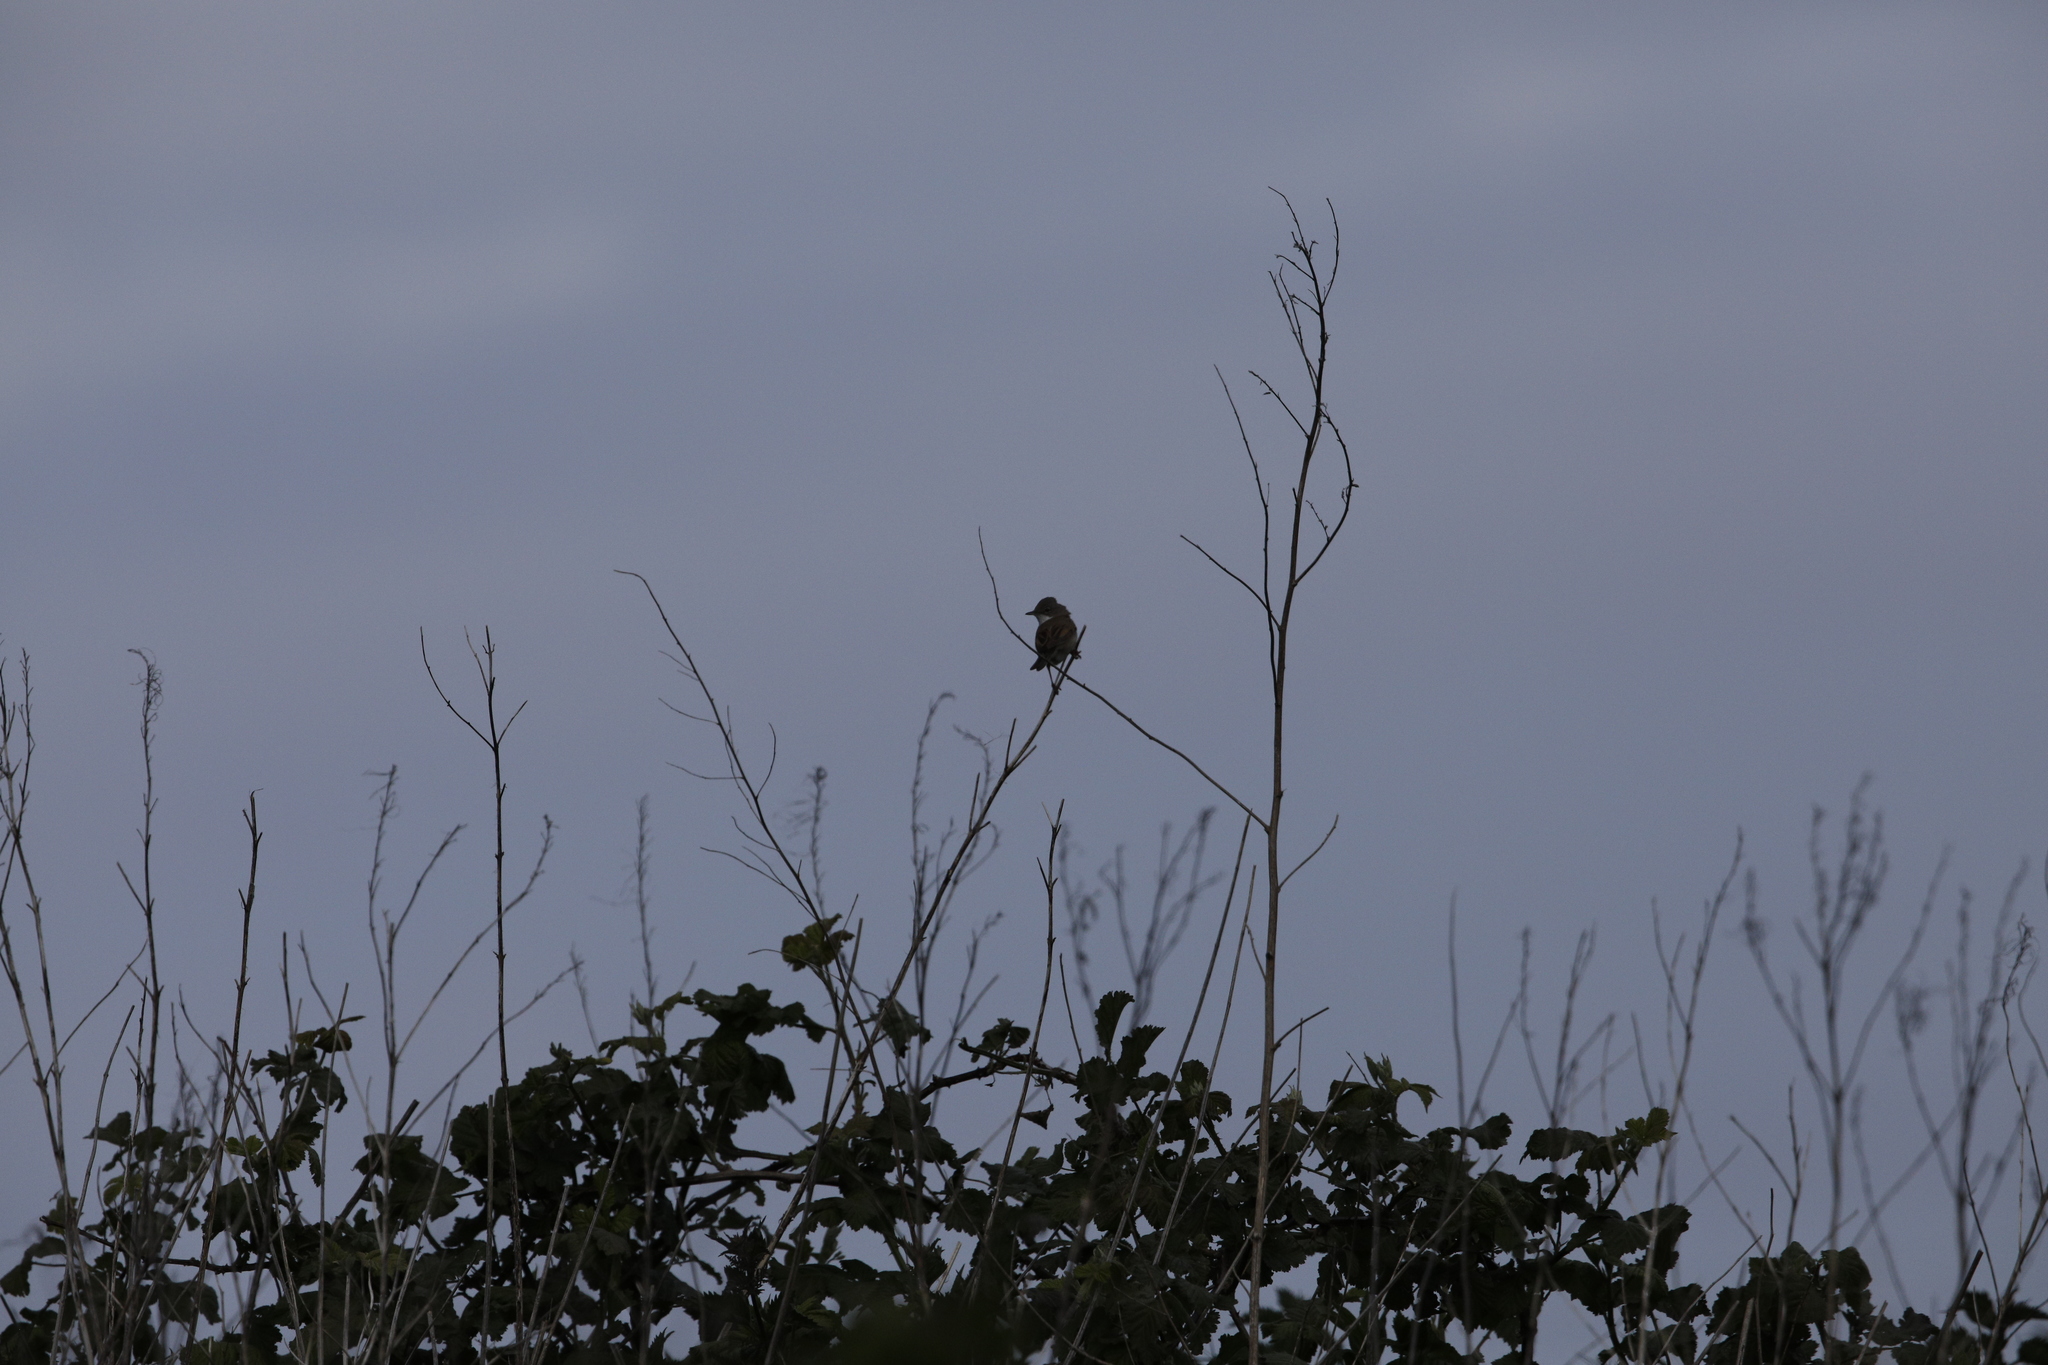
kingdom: Animalia
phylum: Chordata
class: Aves
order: Passeriformes
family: Sylviidae
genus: Sylvia
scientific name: Sylvia communis
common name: Common whitethroat
